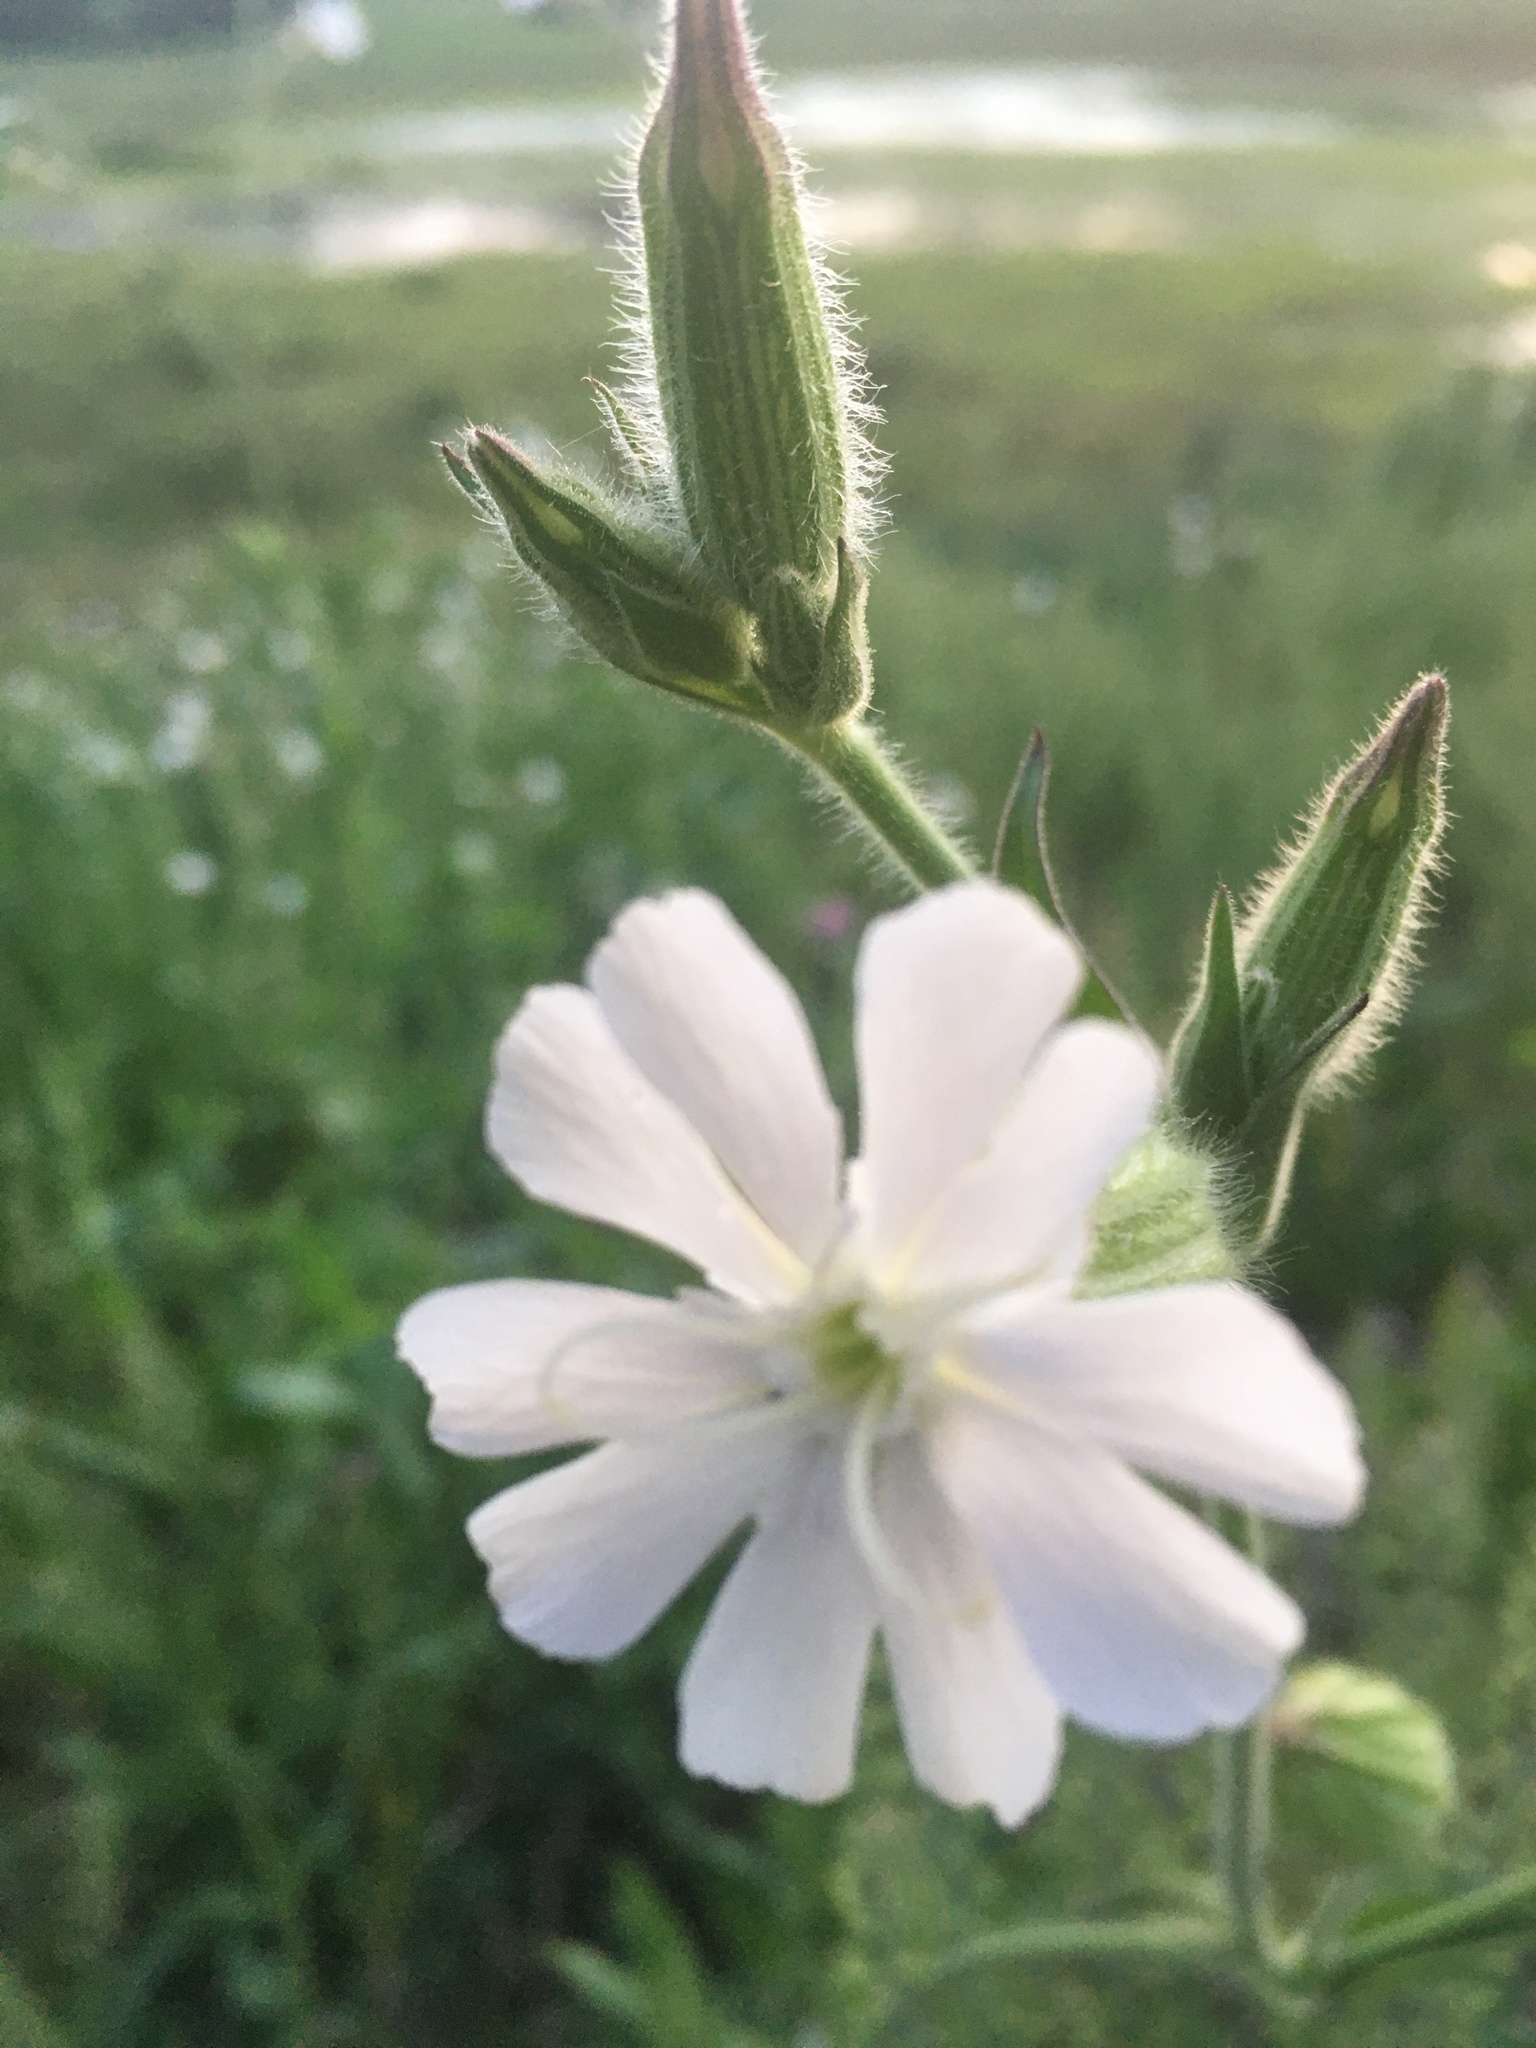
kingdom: Plantae
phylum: Tracheophyta
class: Magnoliopsida
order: Caryophyllales
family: Caryophyllaceae
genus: Silene
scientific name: Silene latifolia
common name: White campion
